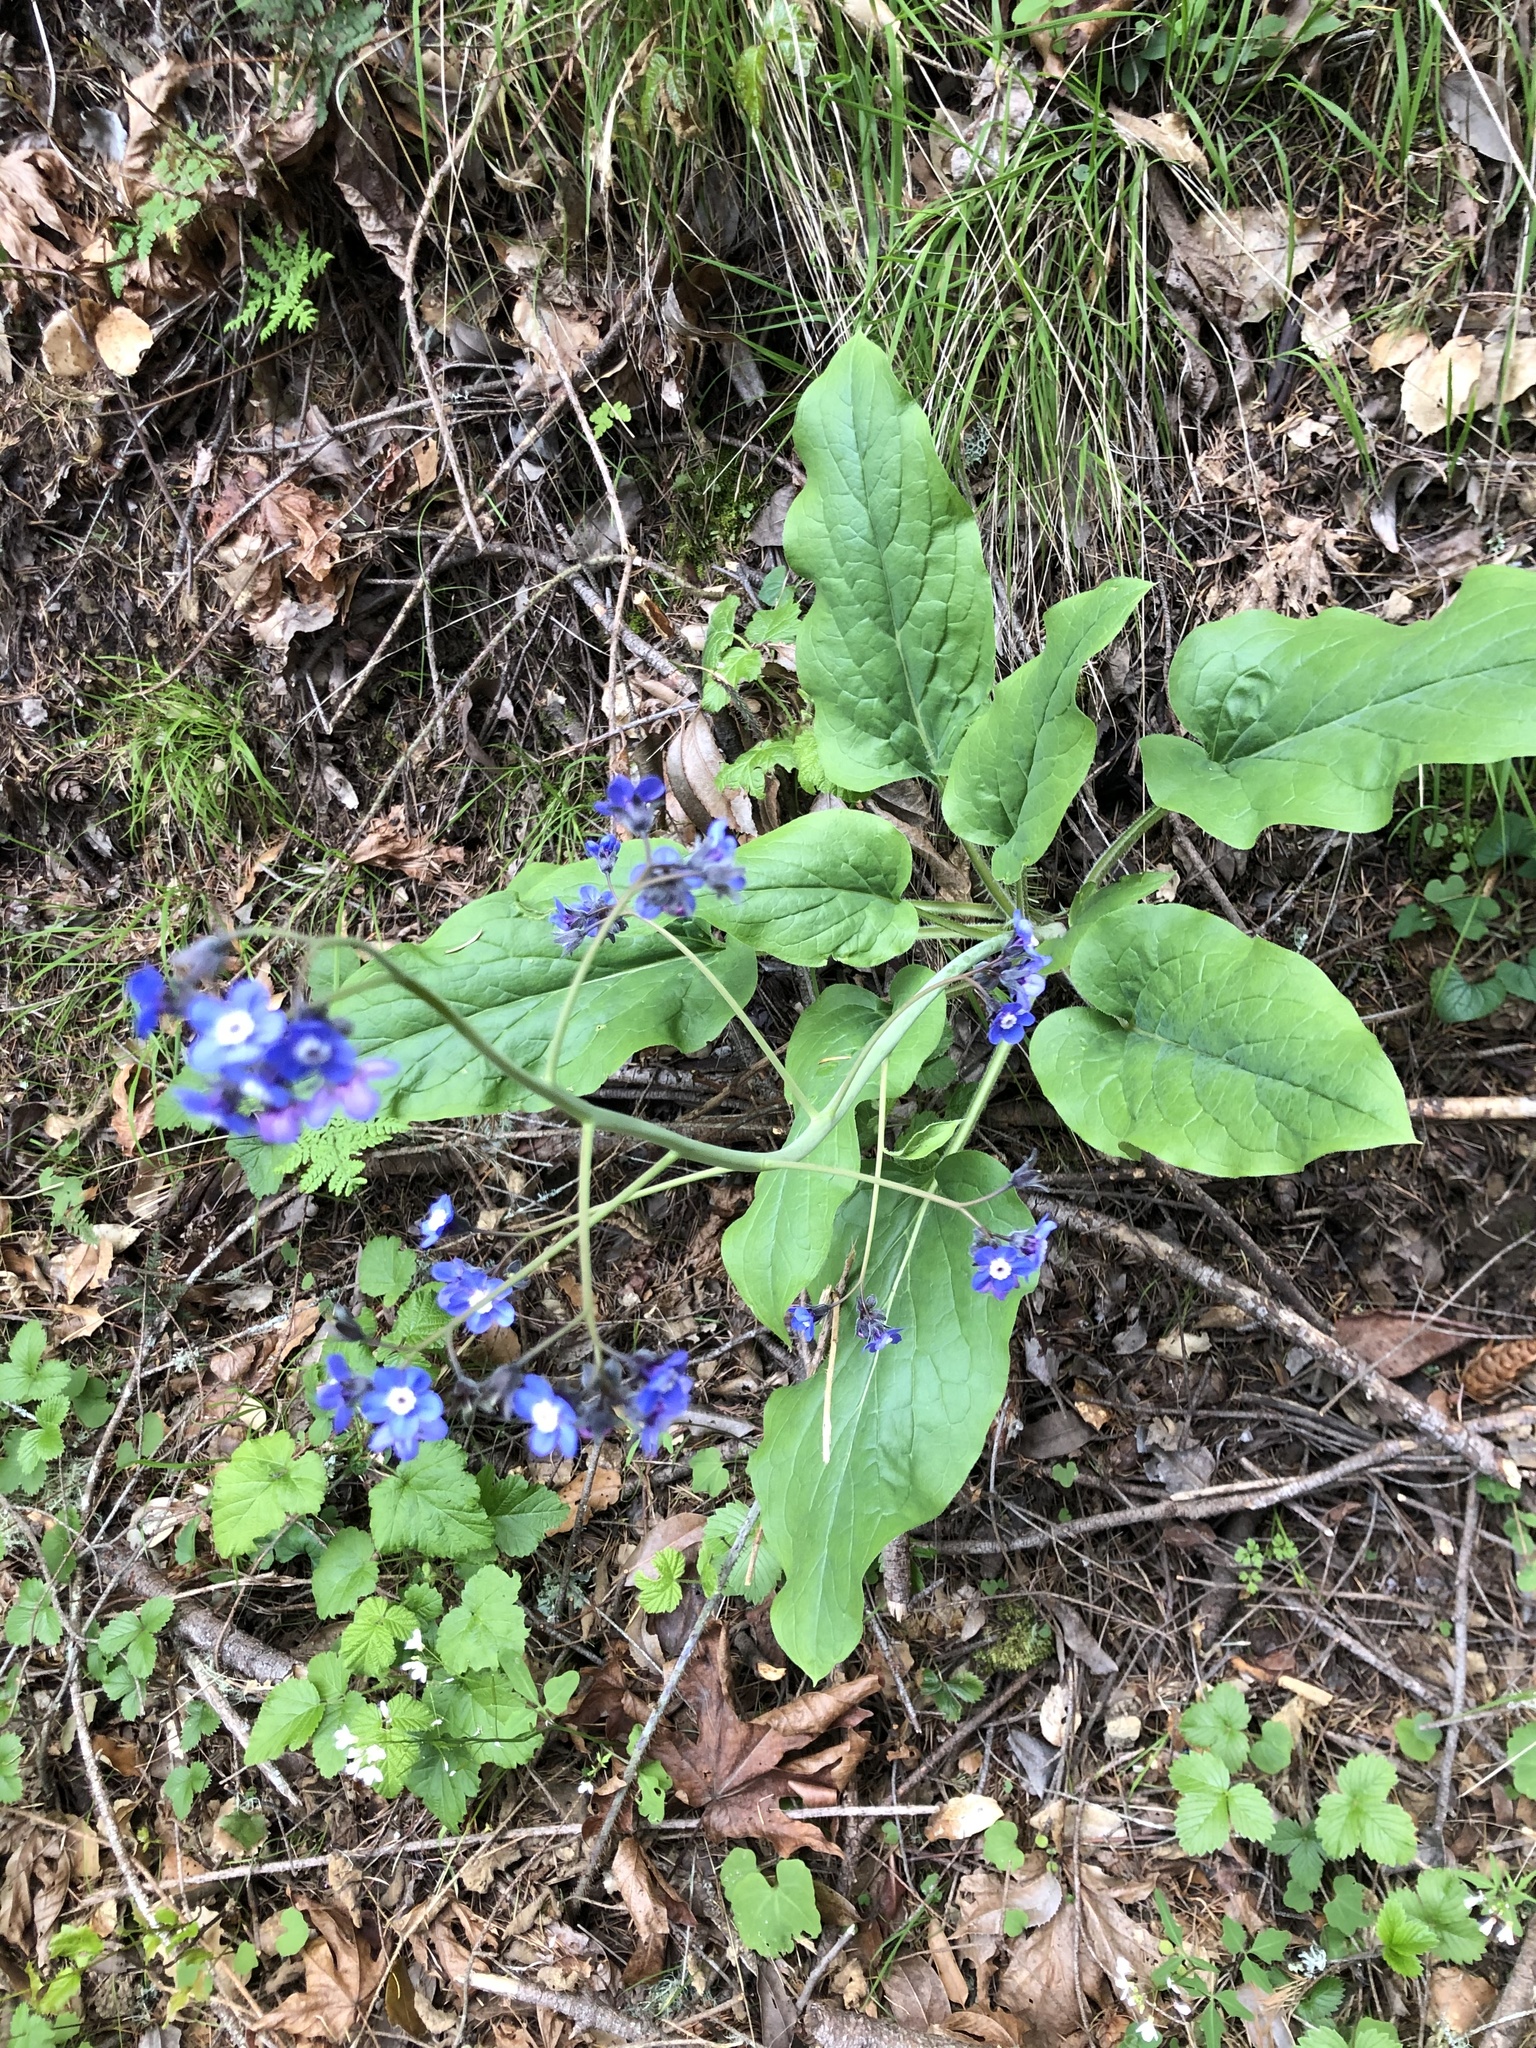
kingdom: Plantae
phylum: Tracheophyta
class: Magnoliopsida
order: Boraginales
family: Boraginaceae
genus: Adelinia
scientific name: Adelinia grande
